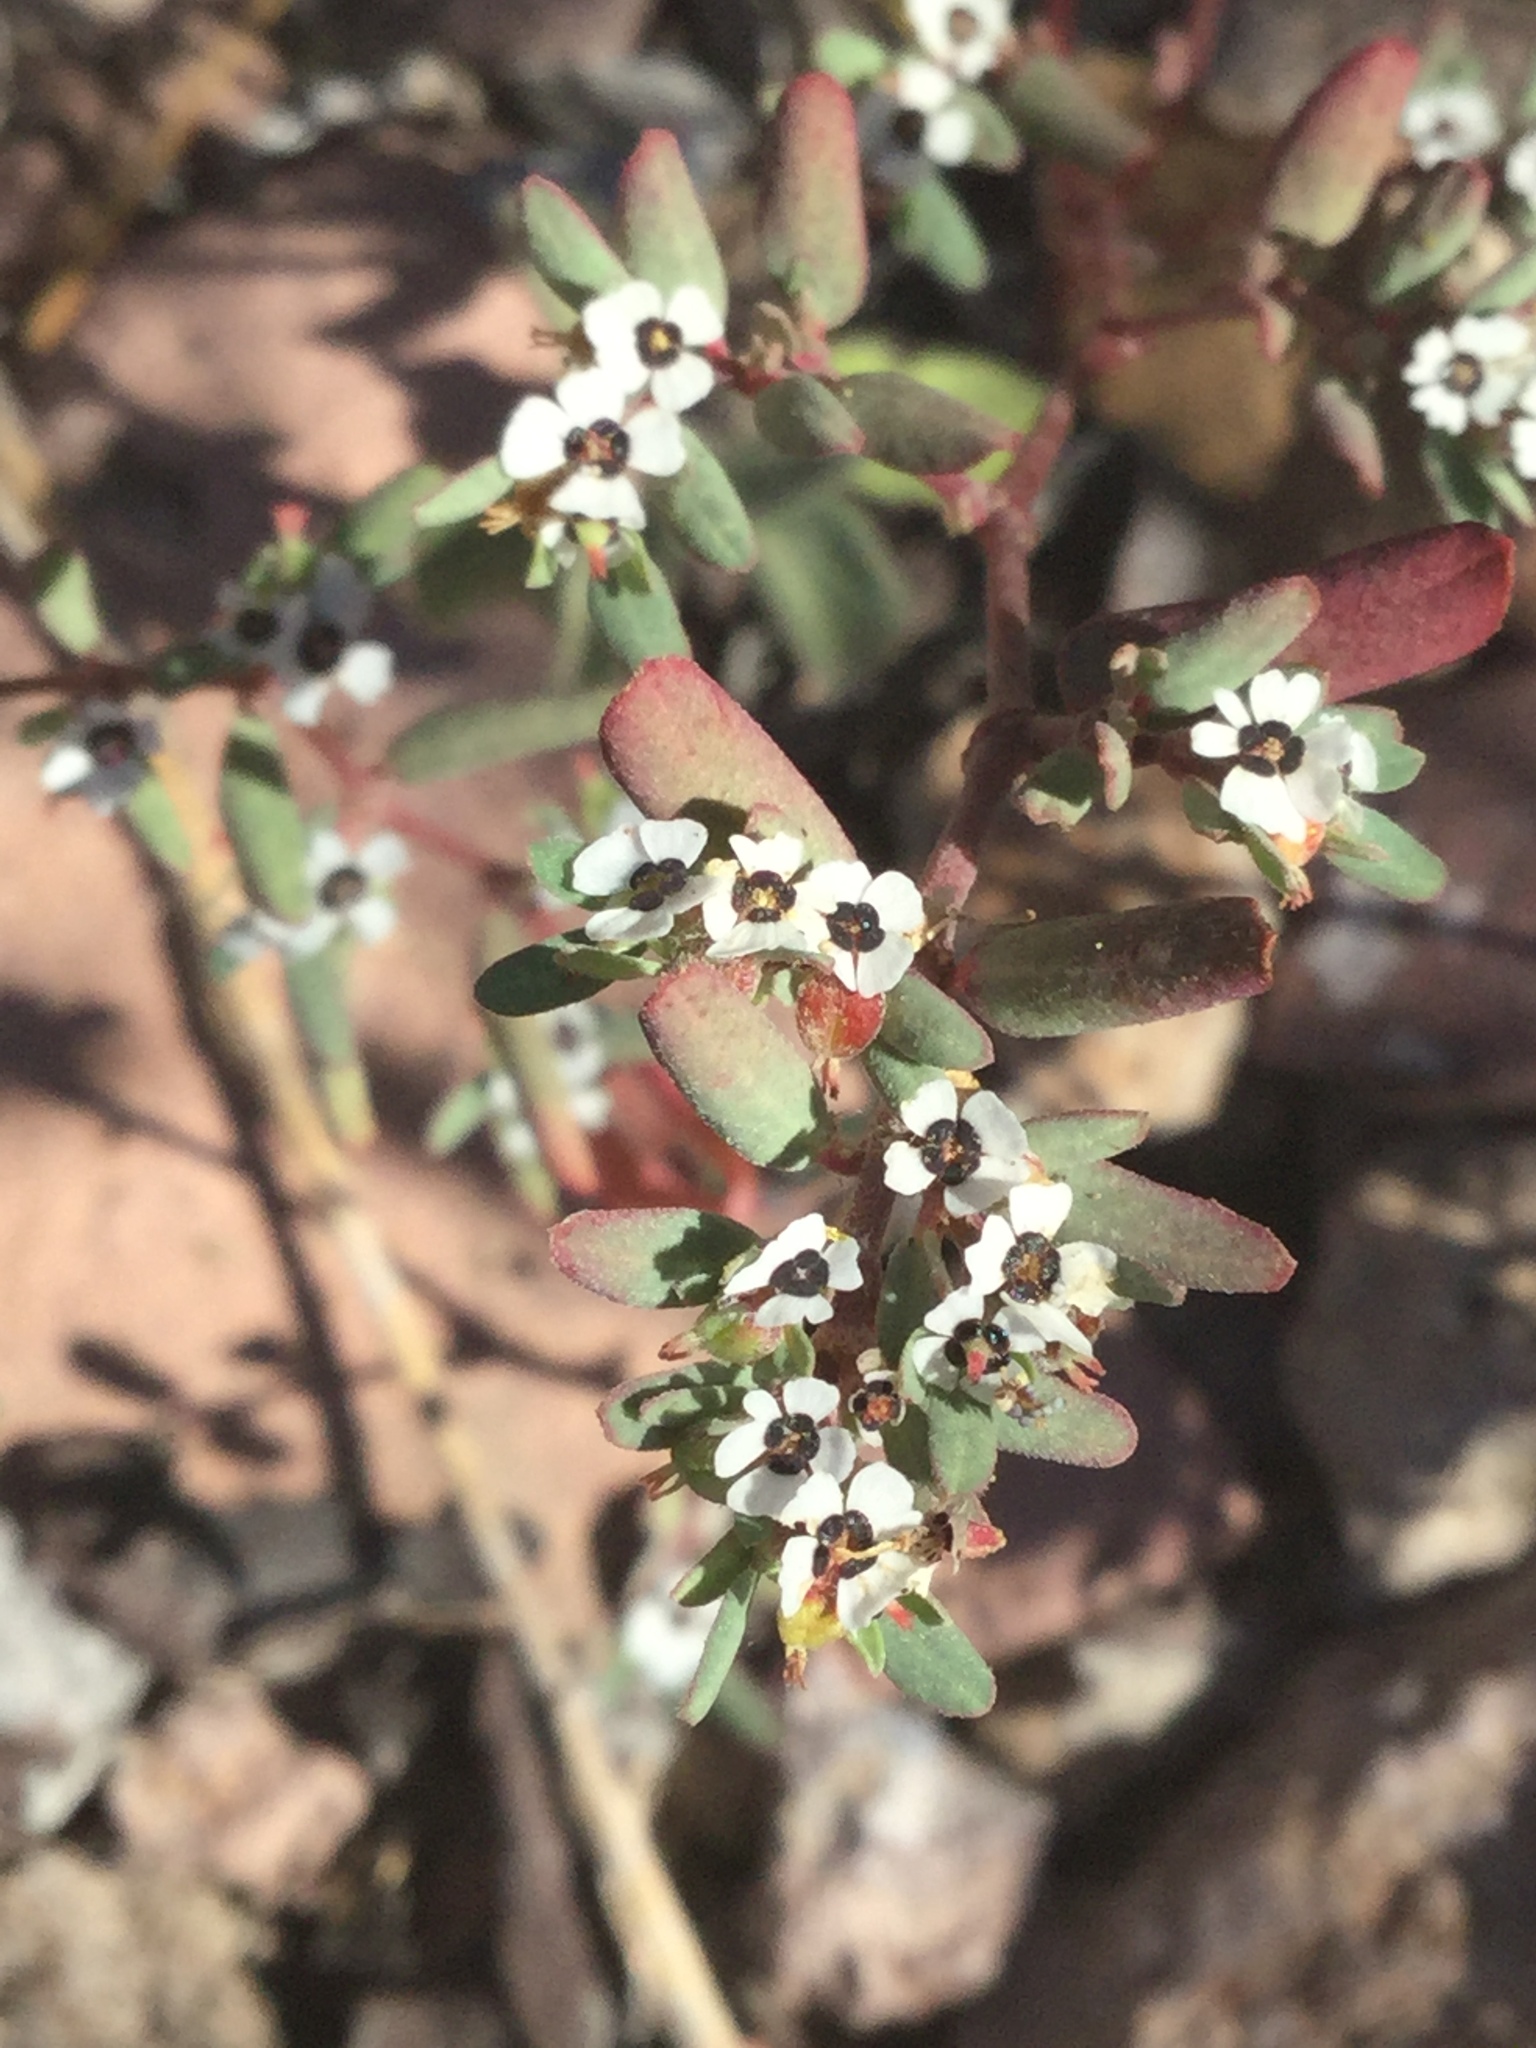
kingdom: Plantae
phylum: Tracheophyta
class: Magnoliopsida
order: Malpighiales
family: Euphorbiaceae
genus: Euphorbia
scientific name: Euphorbia pediculifera
